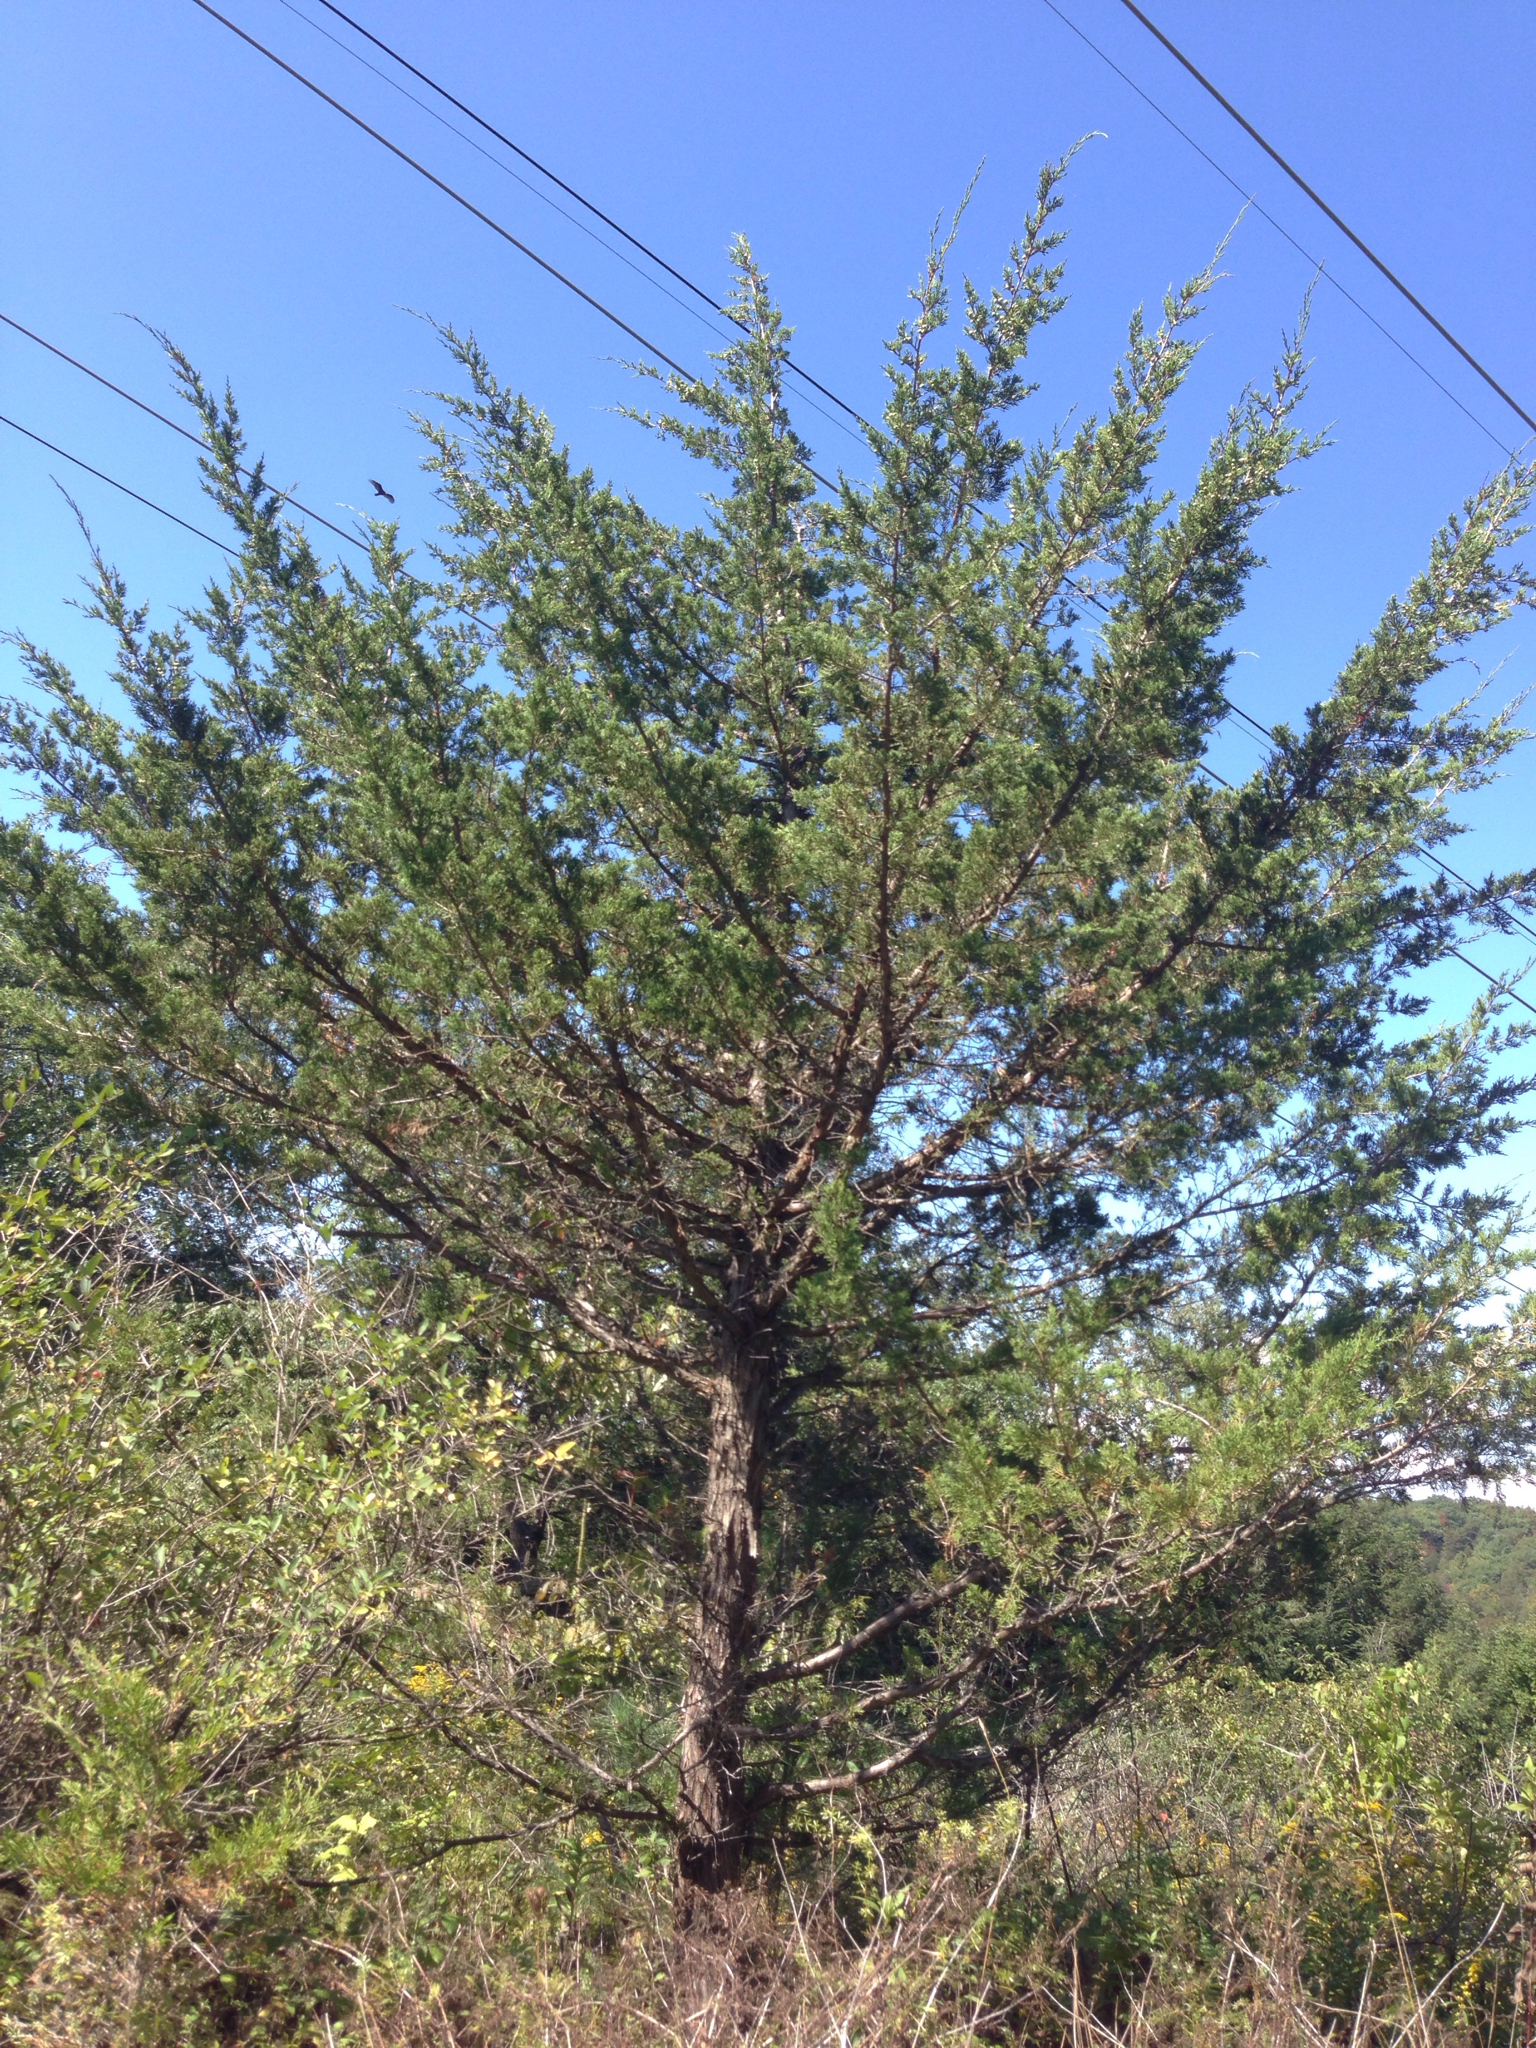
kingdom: Plantae
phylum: Tracheophyta
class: Pinopsida
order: Pinales
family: Cupressaceae
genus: Juniperus
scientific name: Juniperus virginiana
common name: Red juniper
